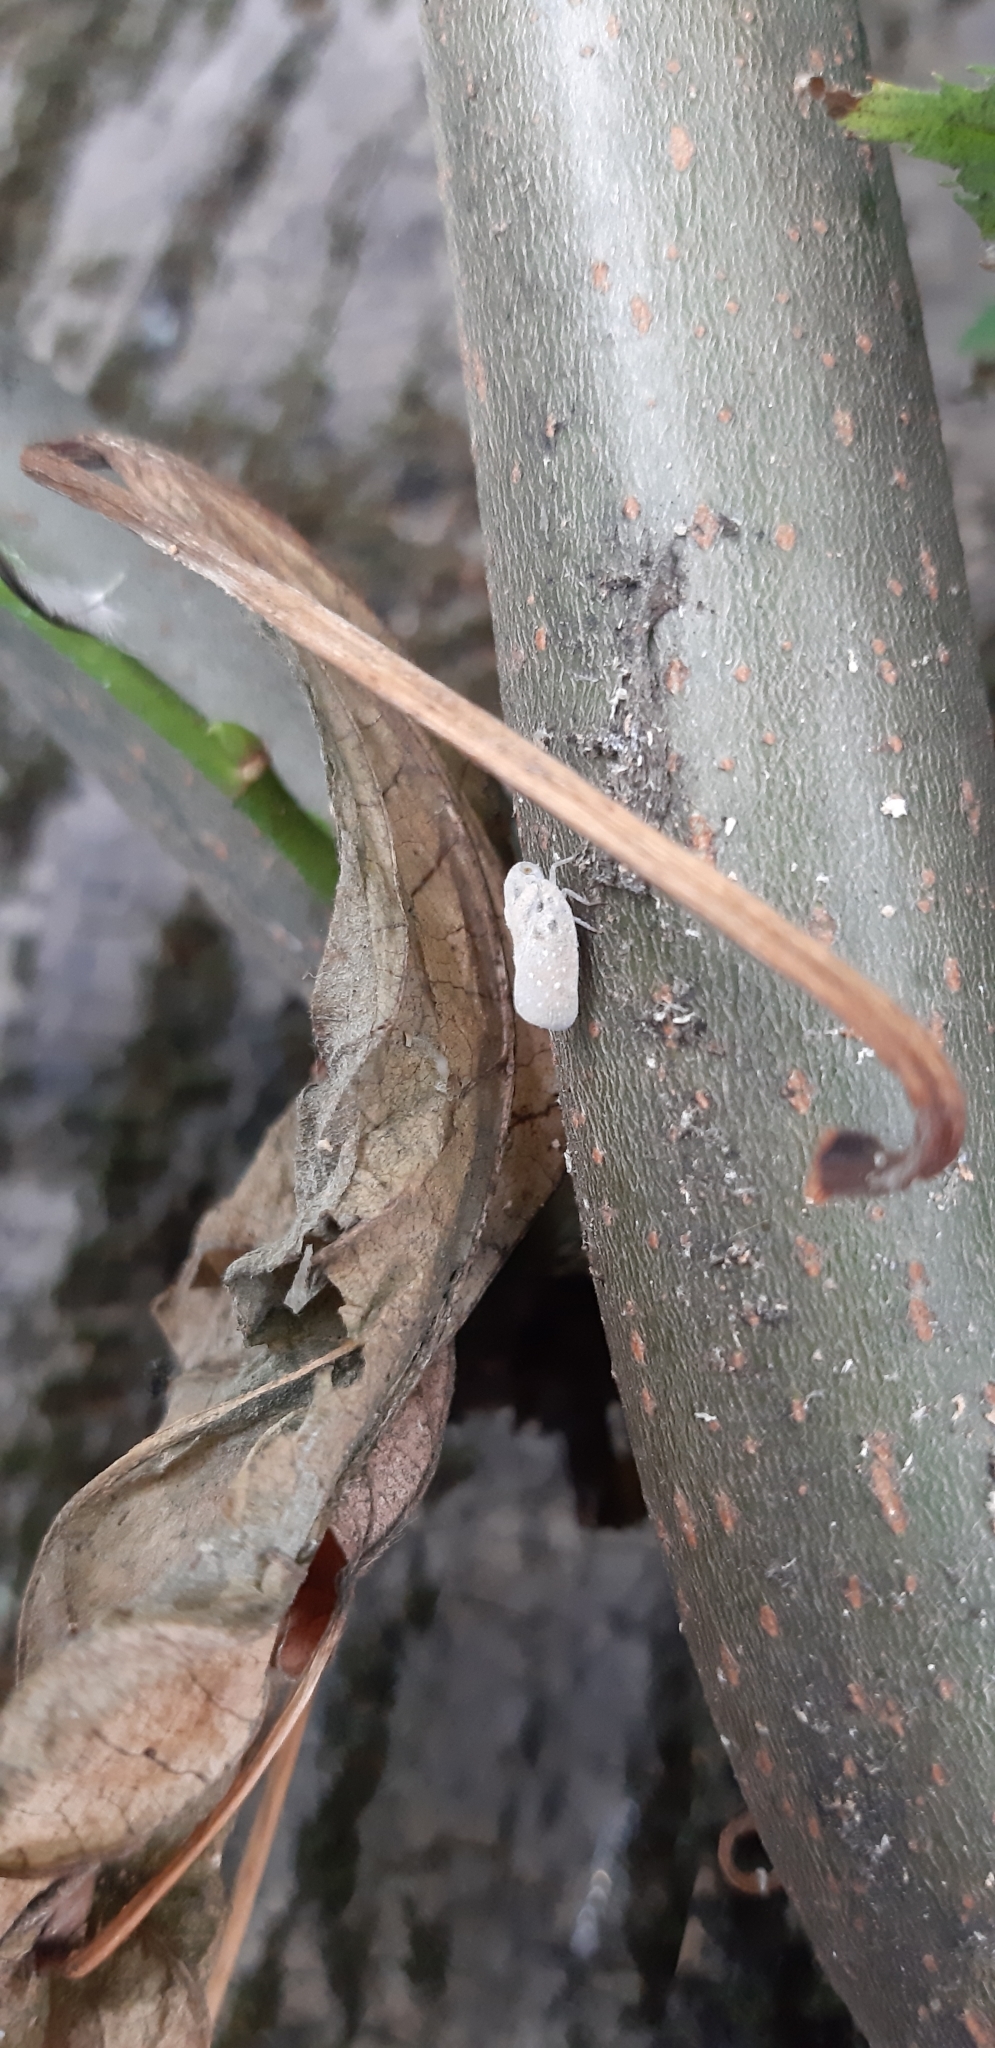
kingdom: Animalia
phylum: Arthropoda
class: Insecta
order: Hemiptera
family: Flatidae
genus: Metcalfa
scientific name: Metcalfa pruinosa
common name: Citrus flatid planthopper
